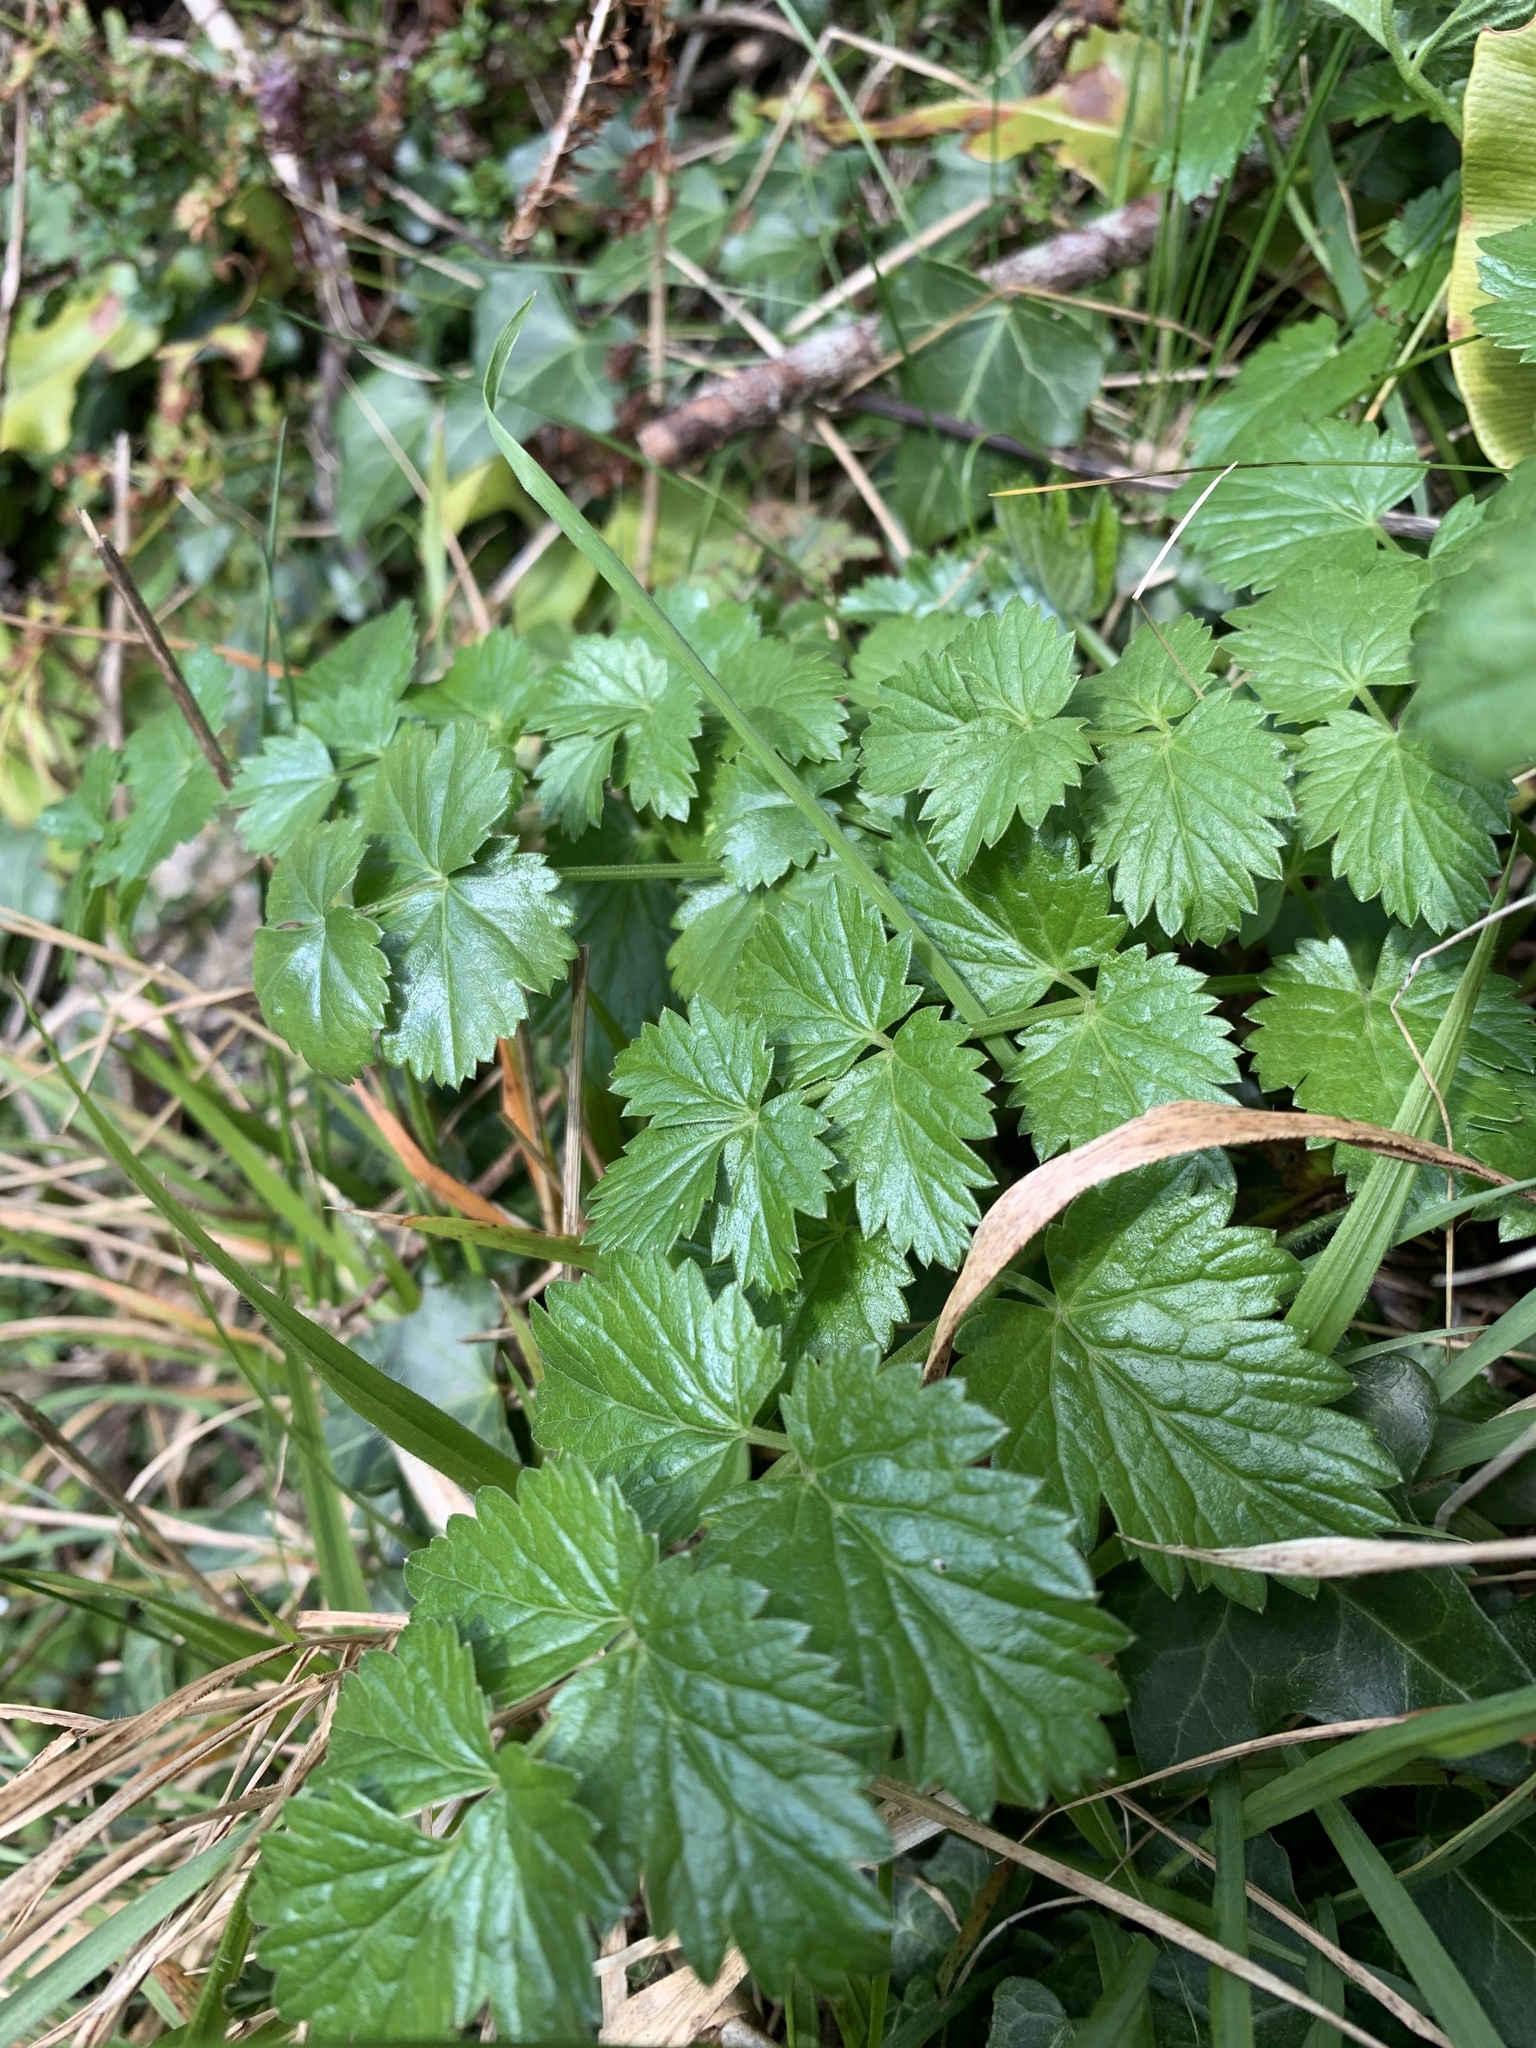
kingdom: Plantae
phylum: Tracheophyta
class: Magnoliopsida
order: Rosales
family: Rosaceae
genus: Geum
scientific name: Geum urbanum
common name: Wood avens
